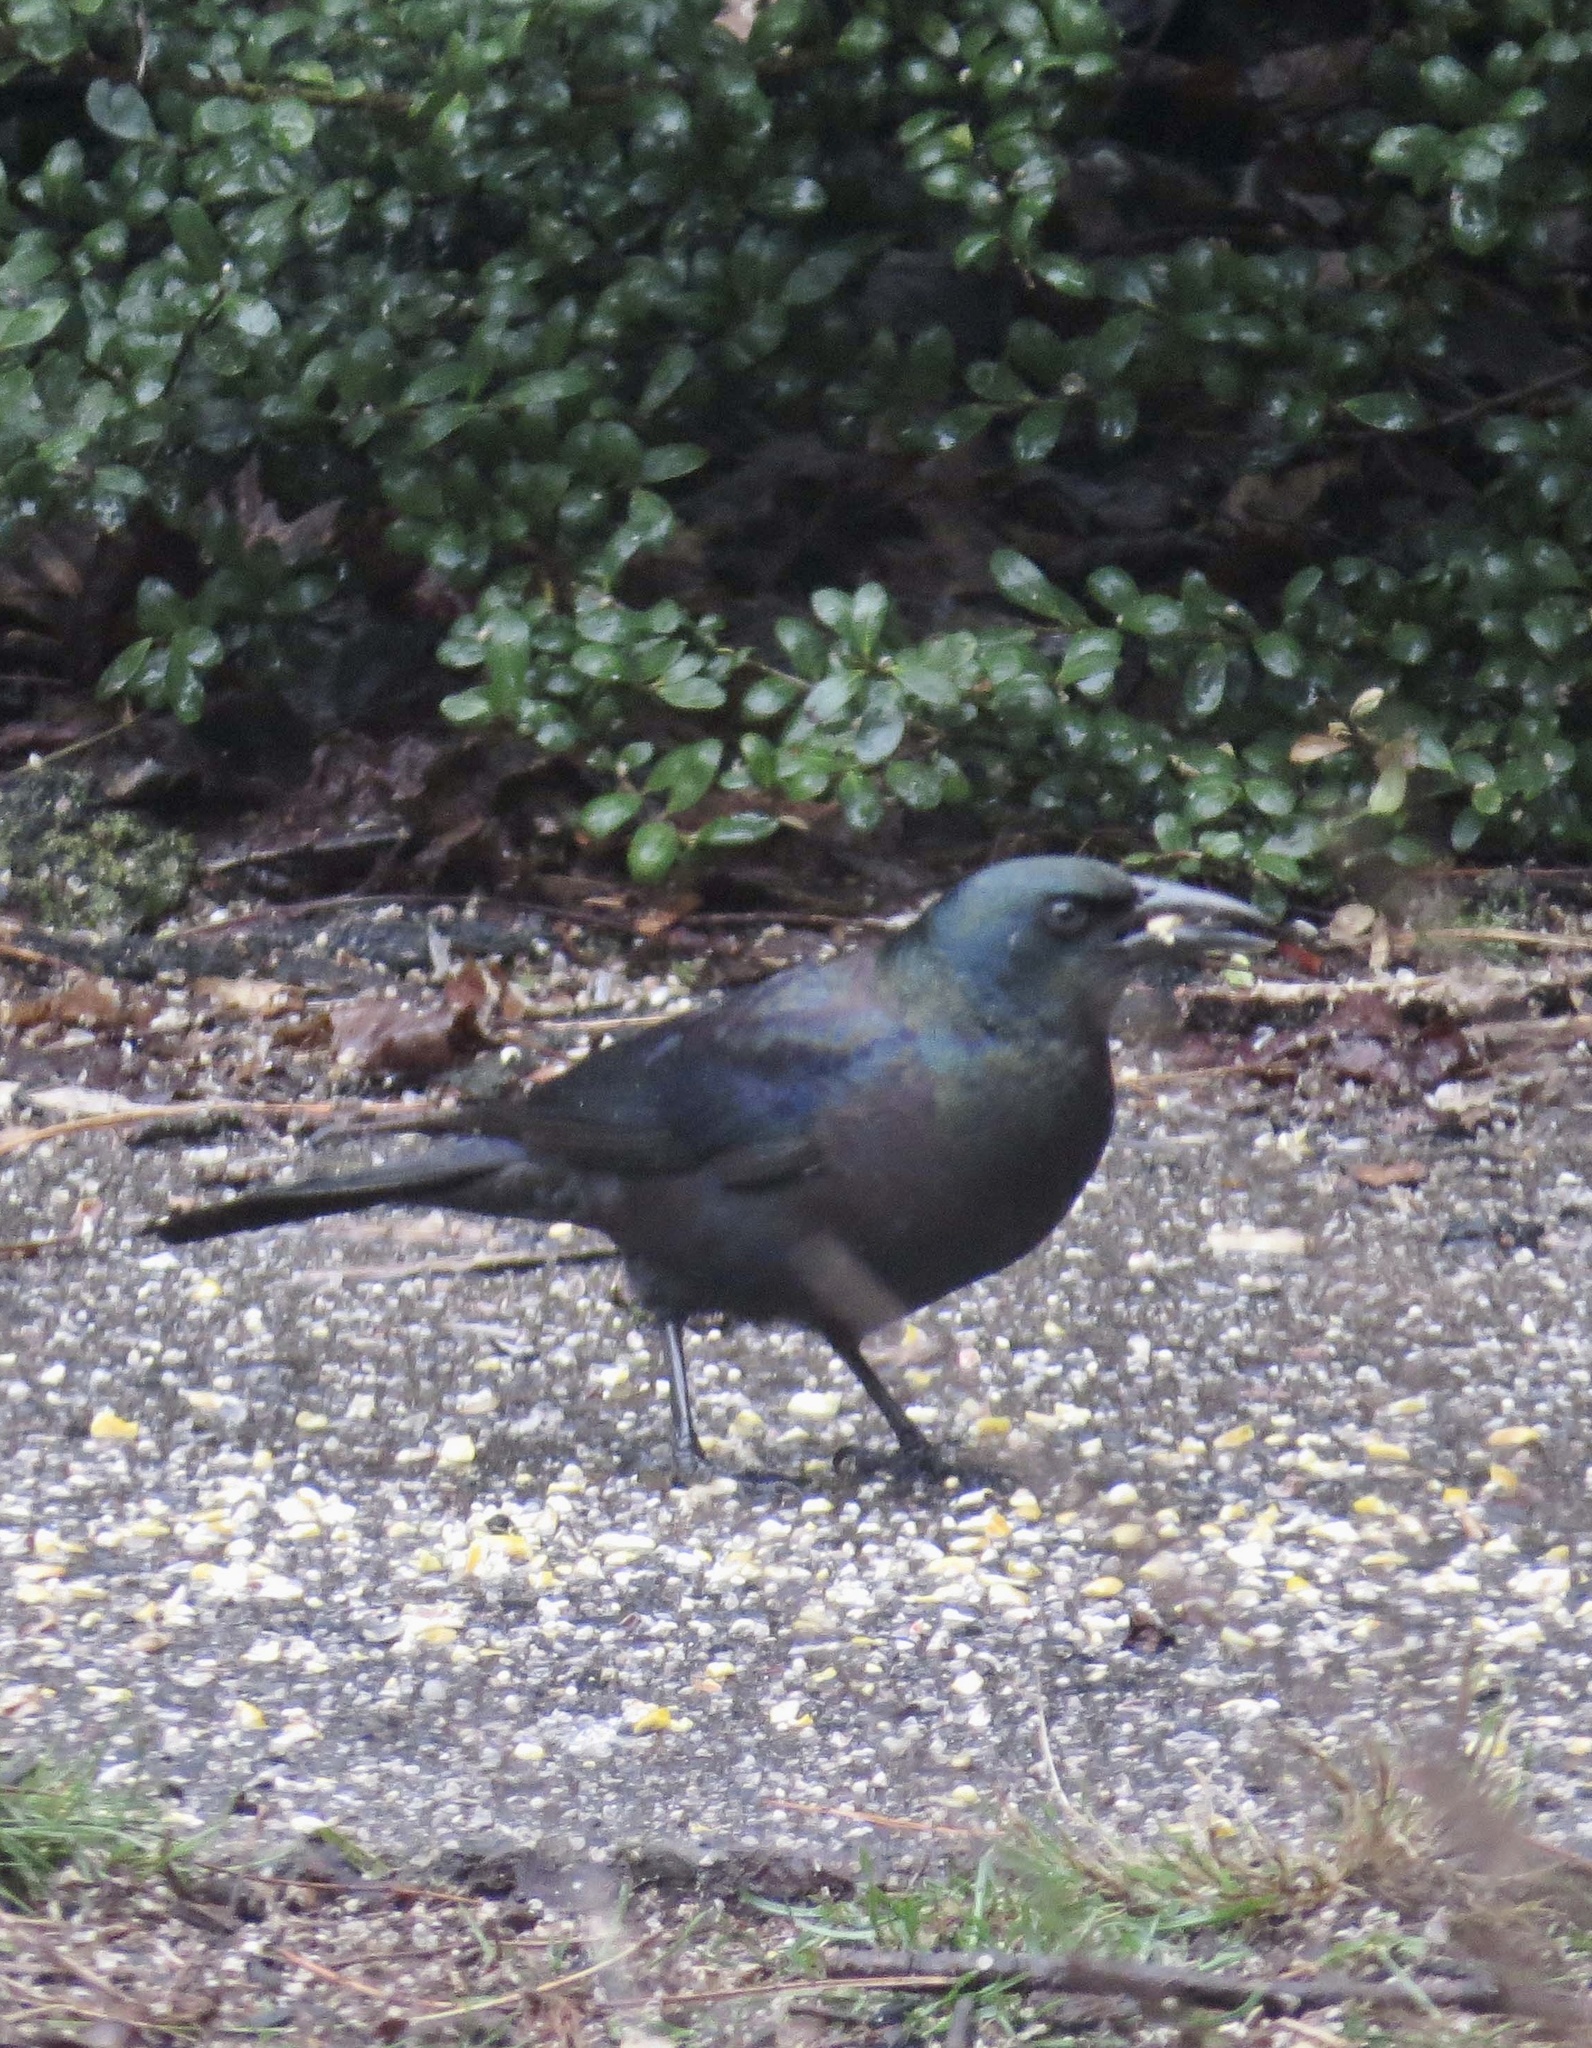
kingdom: Animalia
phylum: Chordata
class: Aves
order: Passeriformes
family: Icteridae
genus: Quiscalus
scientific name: Quiscalus quiscula
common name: Common grackle
